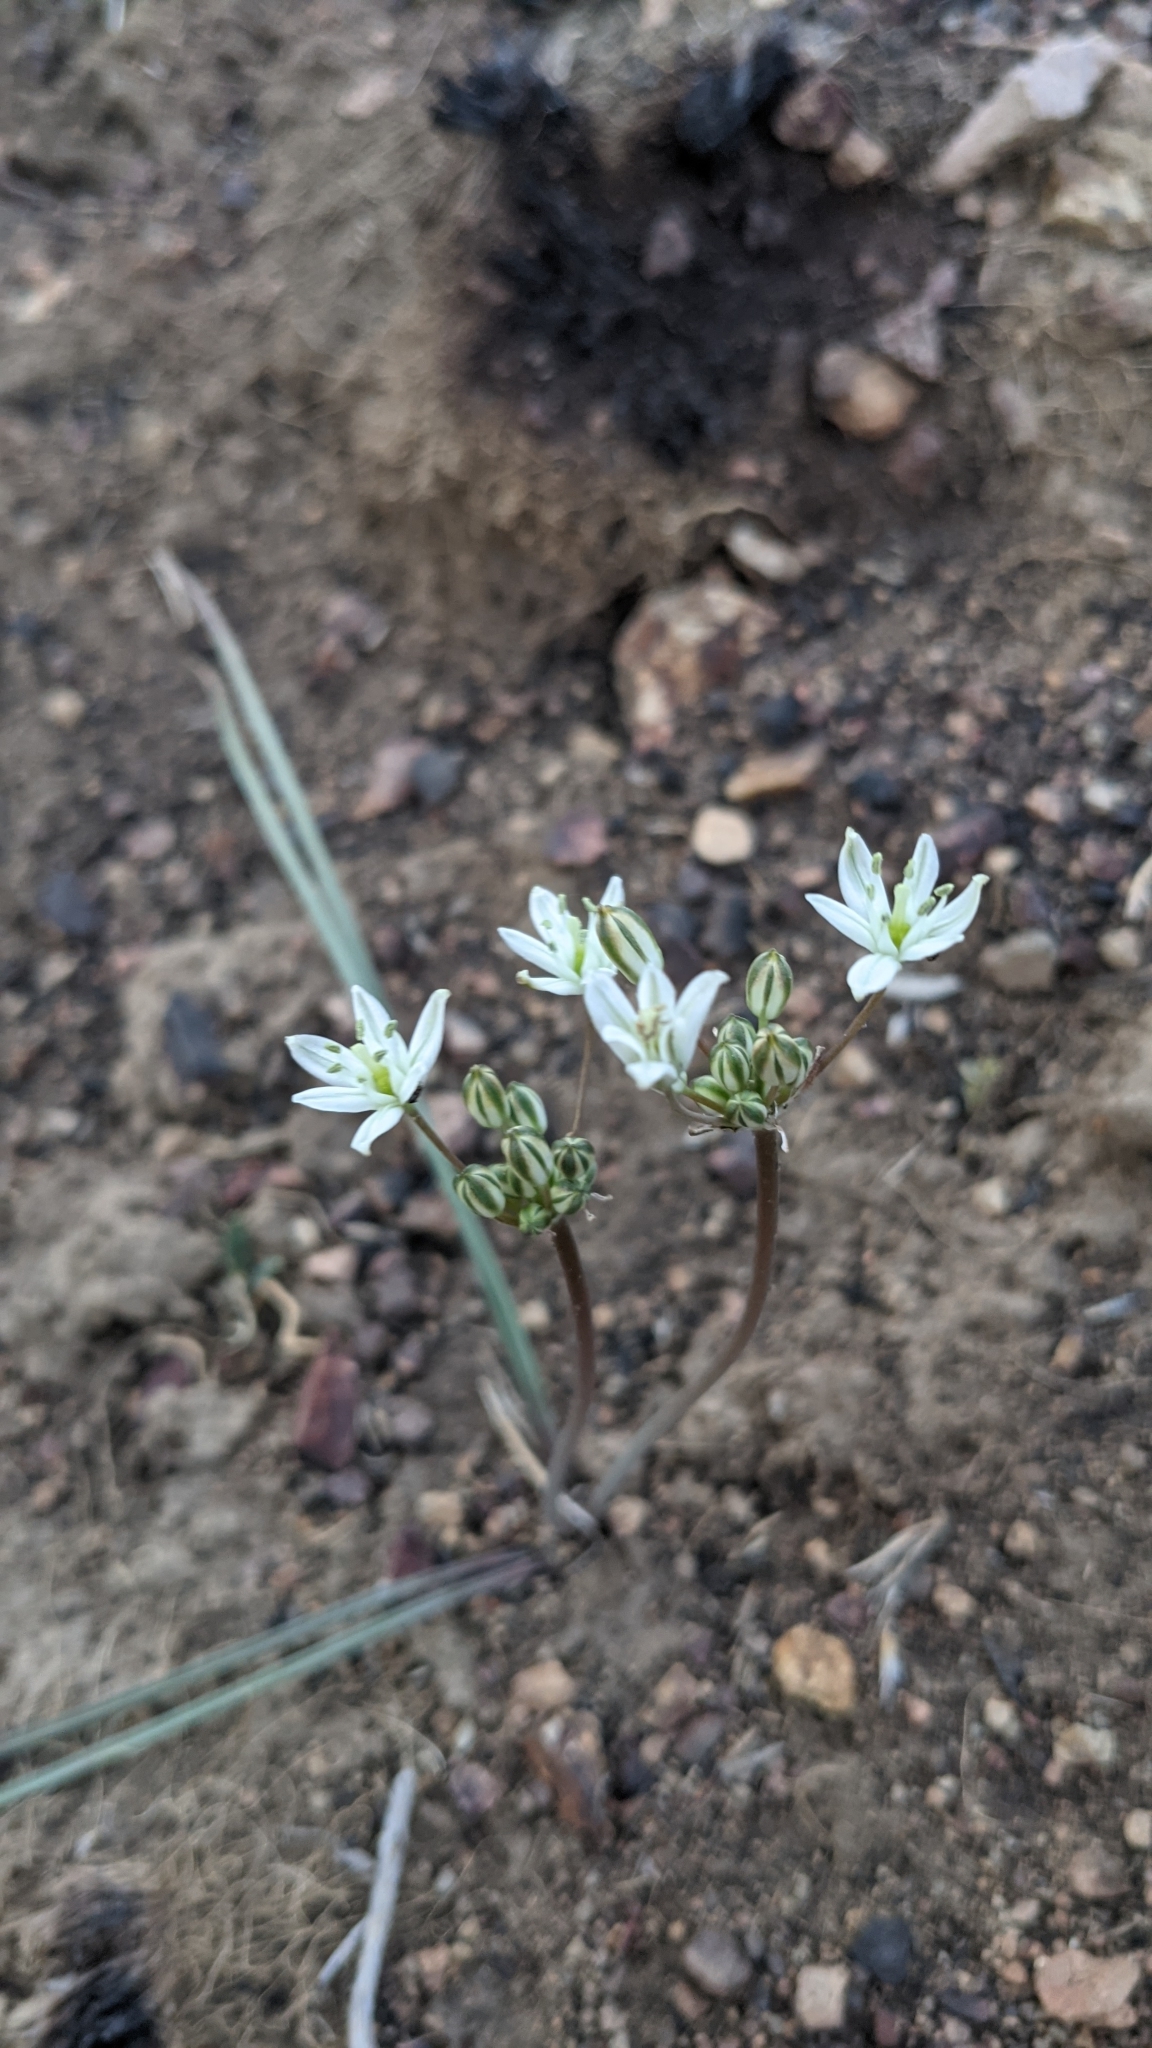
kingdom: Plantae
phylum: Tracheophyta
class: Liliopsida
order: Asparagales
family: Asparagaceae
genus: Muilla
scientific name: Muilla transmontana
